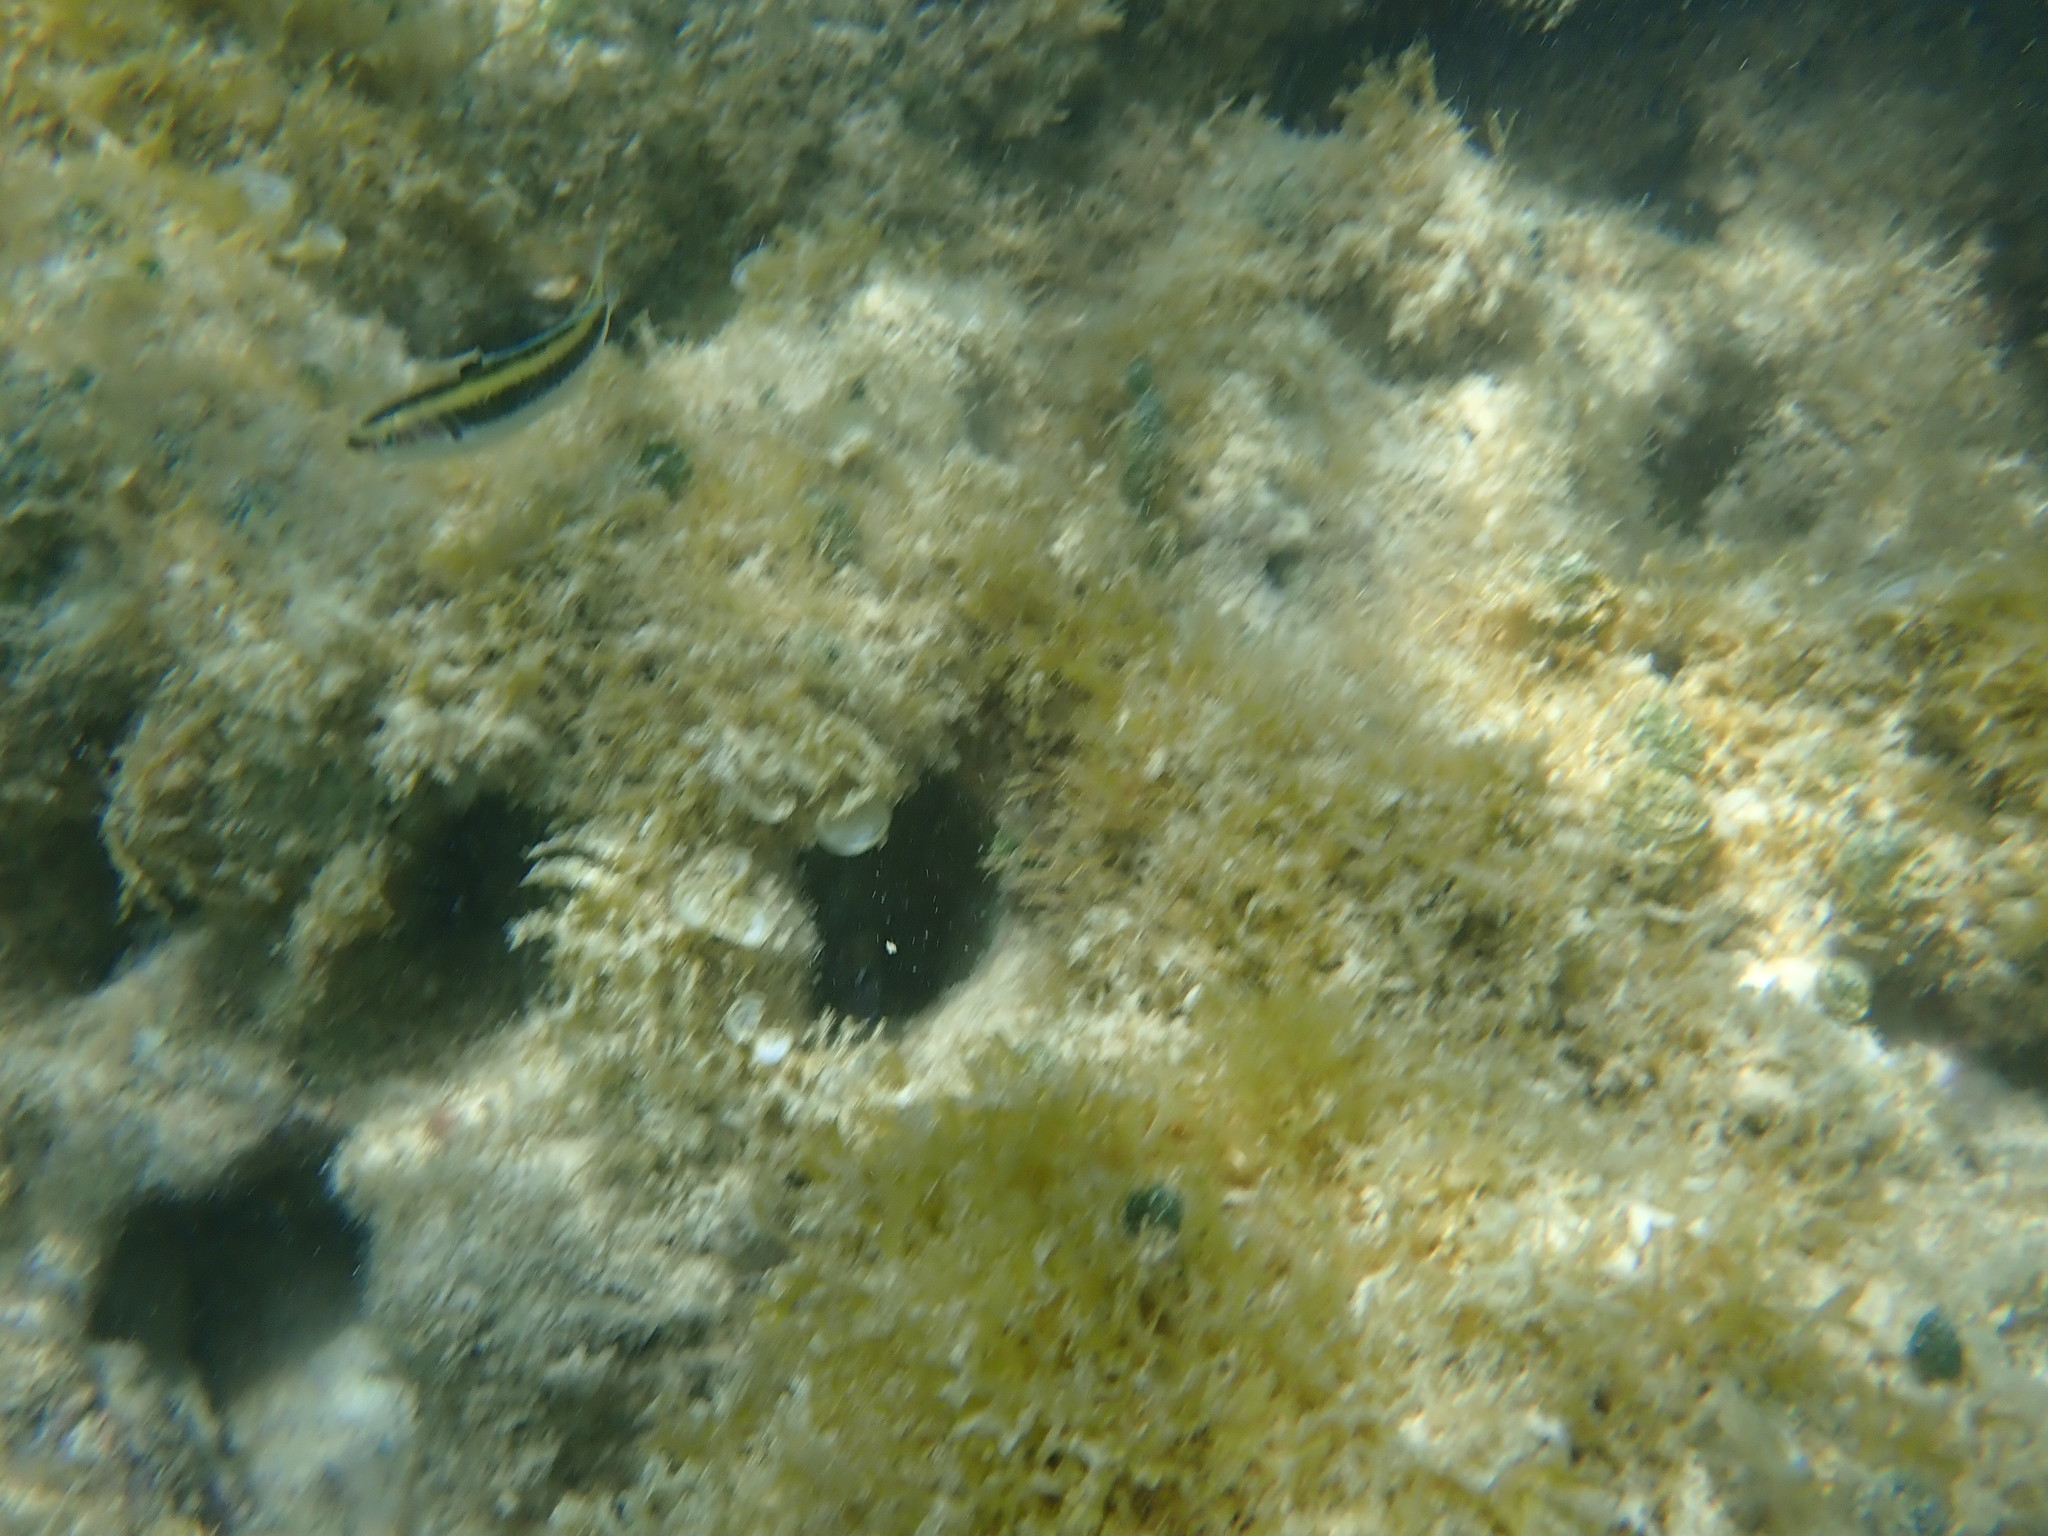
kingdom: Animalia
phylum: Chordata
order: Perciformes
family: Labridae
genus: Thalassoma
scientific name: Thalassoma bifasciatum
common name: Bluehead wrasse
